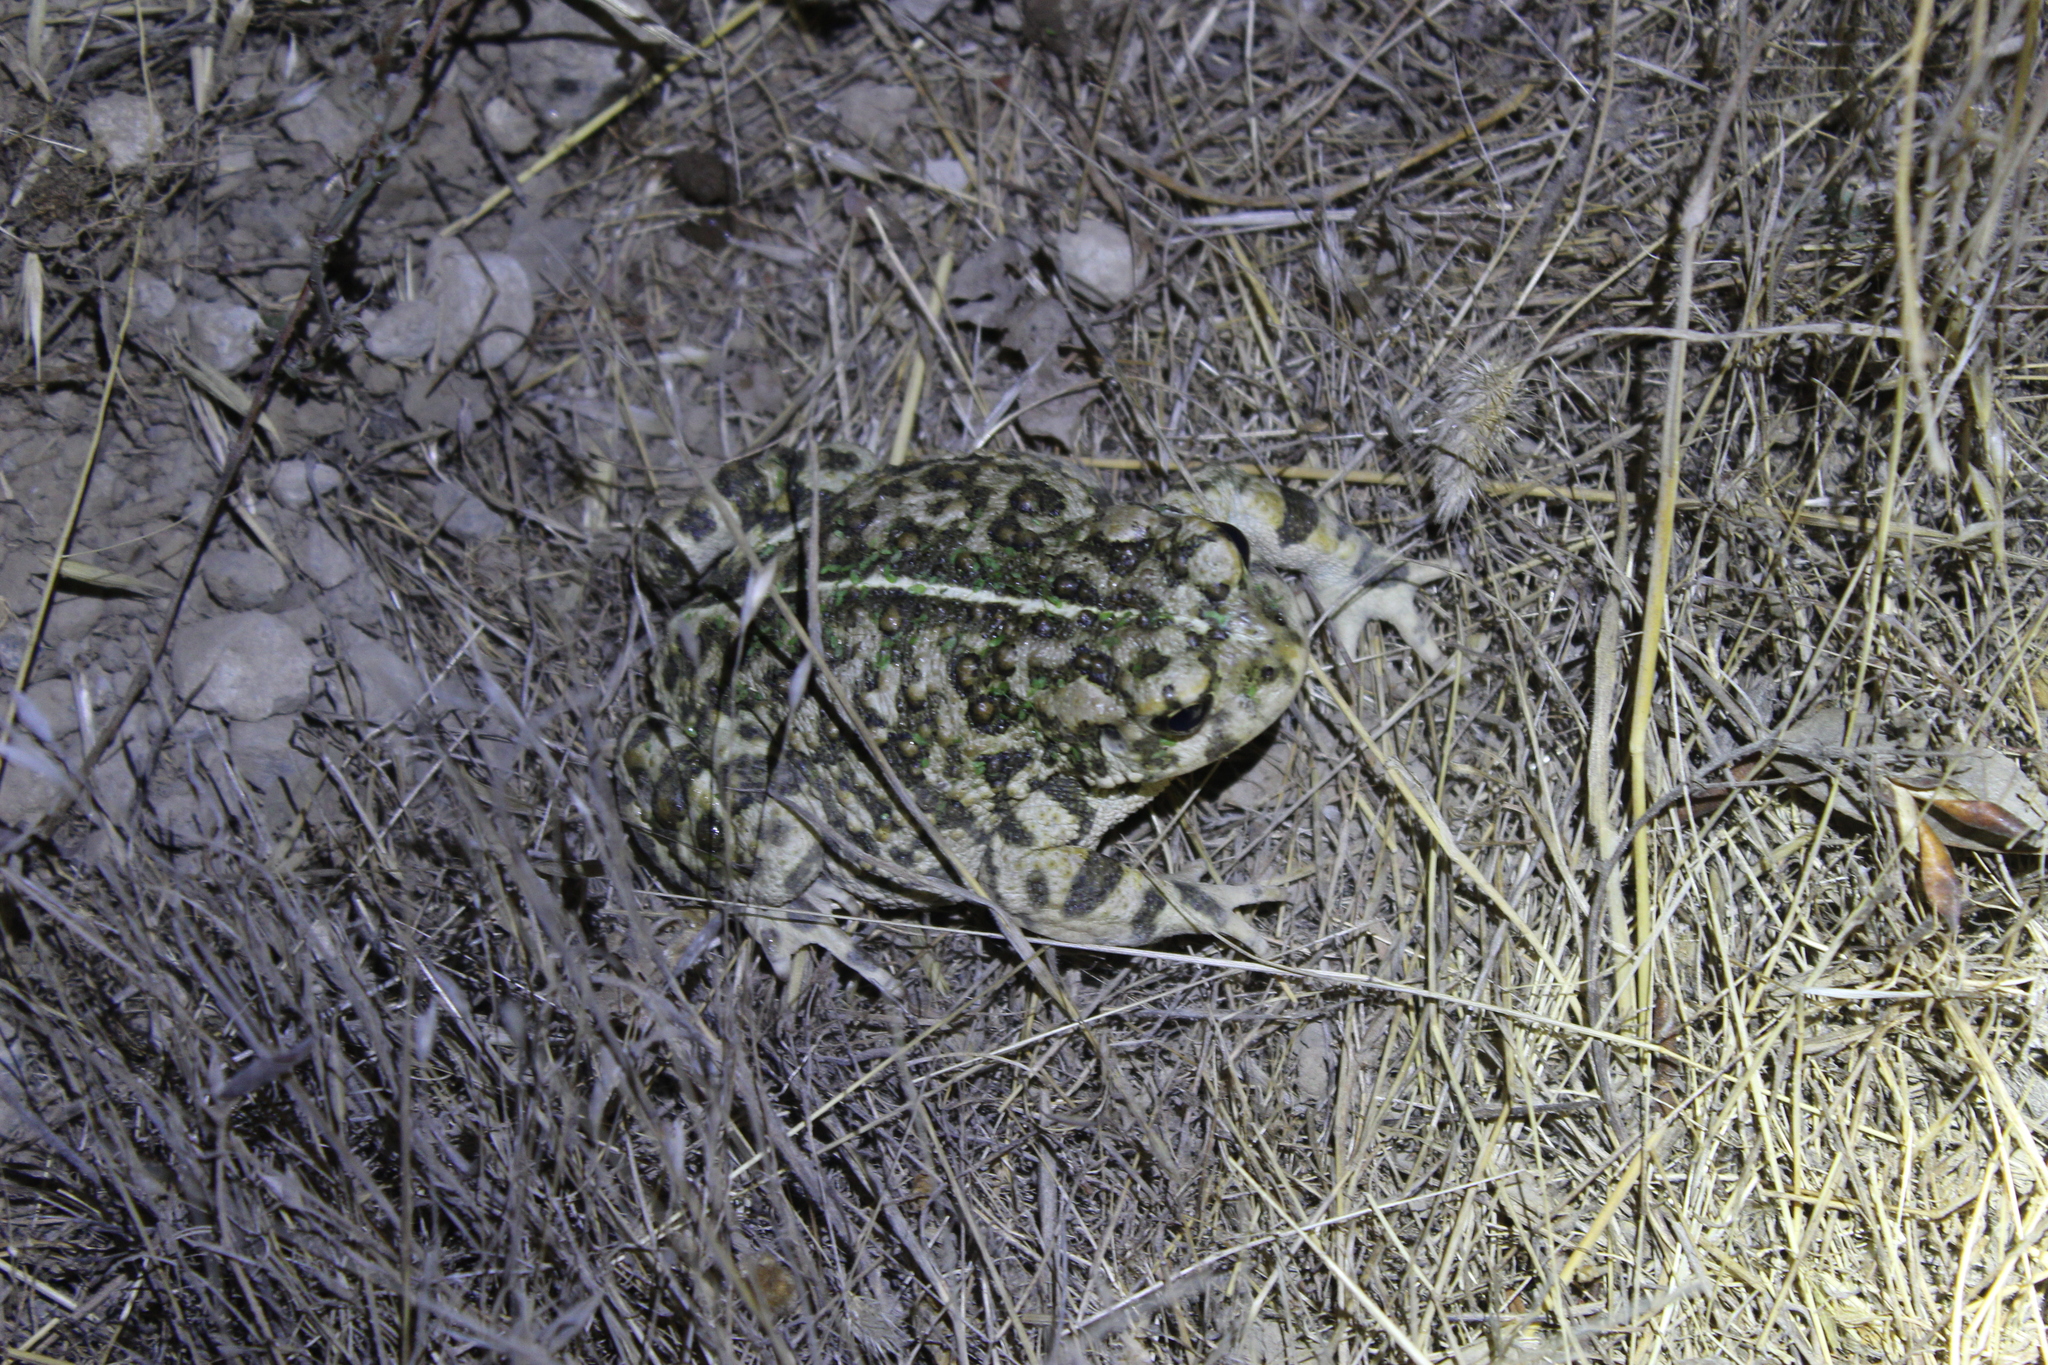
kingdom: Animalia
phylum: Chordata
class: Amphibia
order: Anura
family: Bufonidae
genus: Anaxyrus
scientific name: Anaxyrus boreas
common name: Western toad
